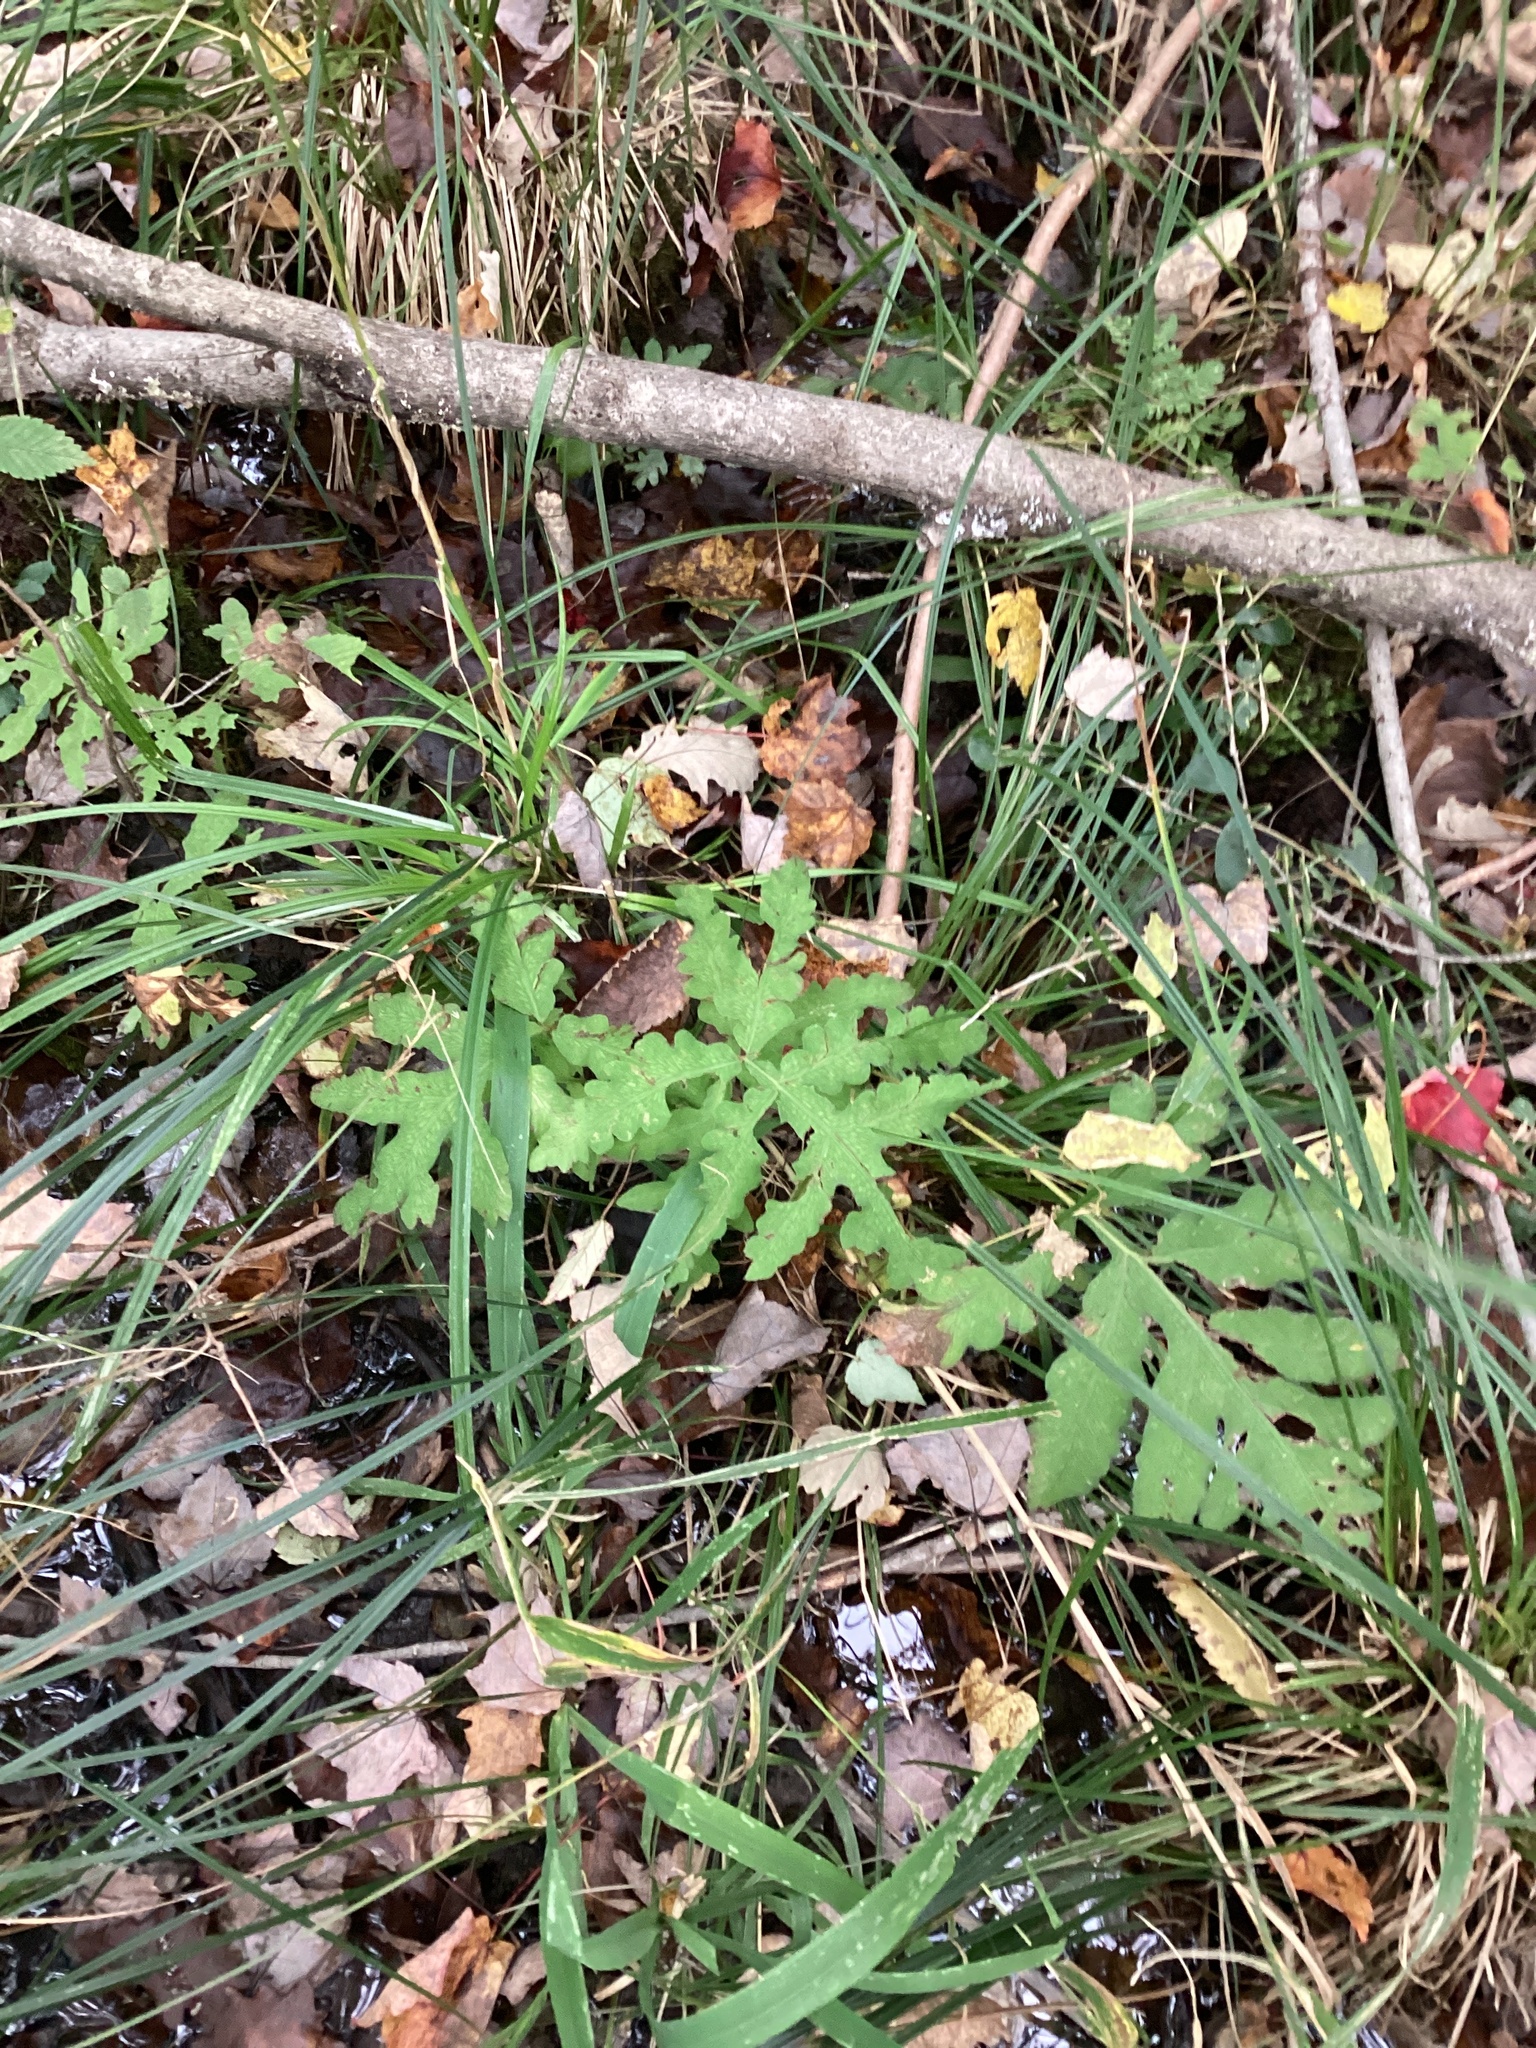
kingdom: Plantae
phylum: Tracheophyta
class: Polypodiopsida
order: Polypodiales
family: Onocleaceae
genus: Onoclea
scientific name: Onoclea sensibilis
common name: Sensitive fern
